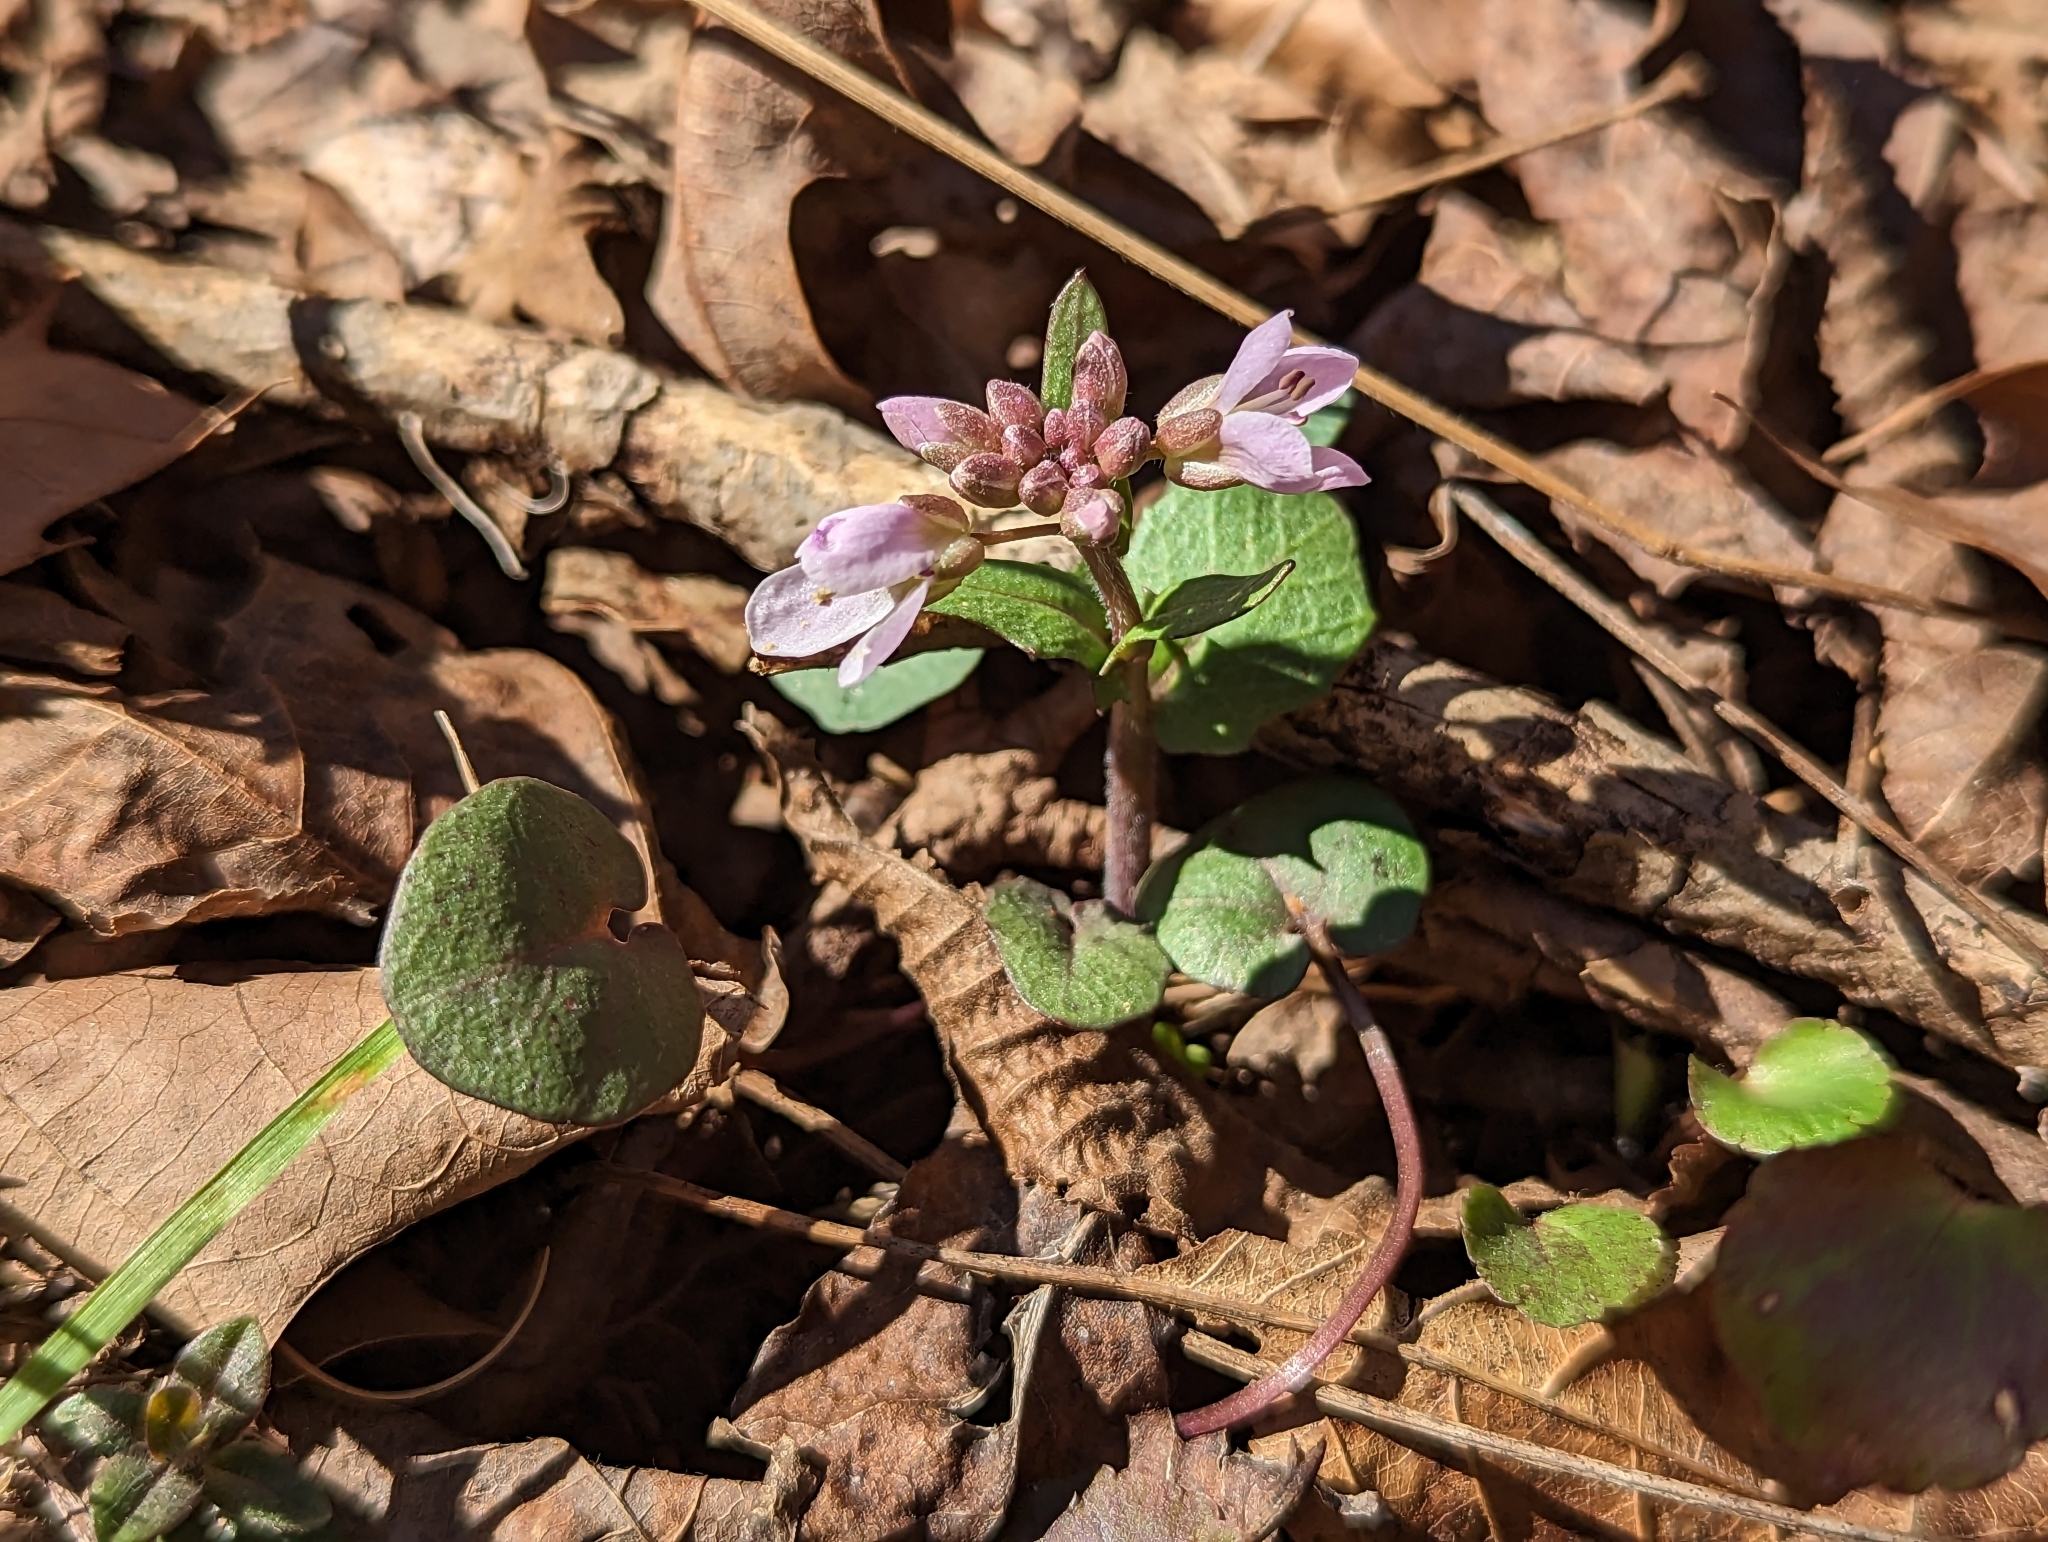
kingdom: Plantae
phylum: Tracheophyta
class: Magnoliopsida
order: Brassicales
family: Brassicaceae
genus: Cardamine
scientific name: Cardamine douglassii
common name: Purple cress
